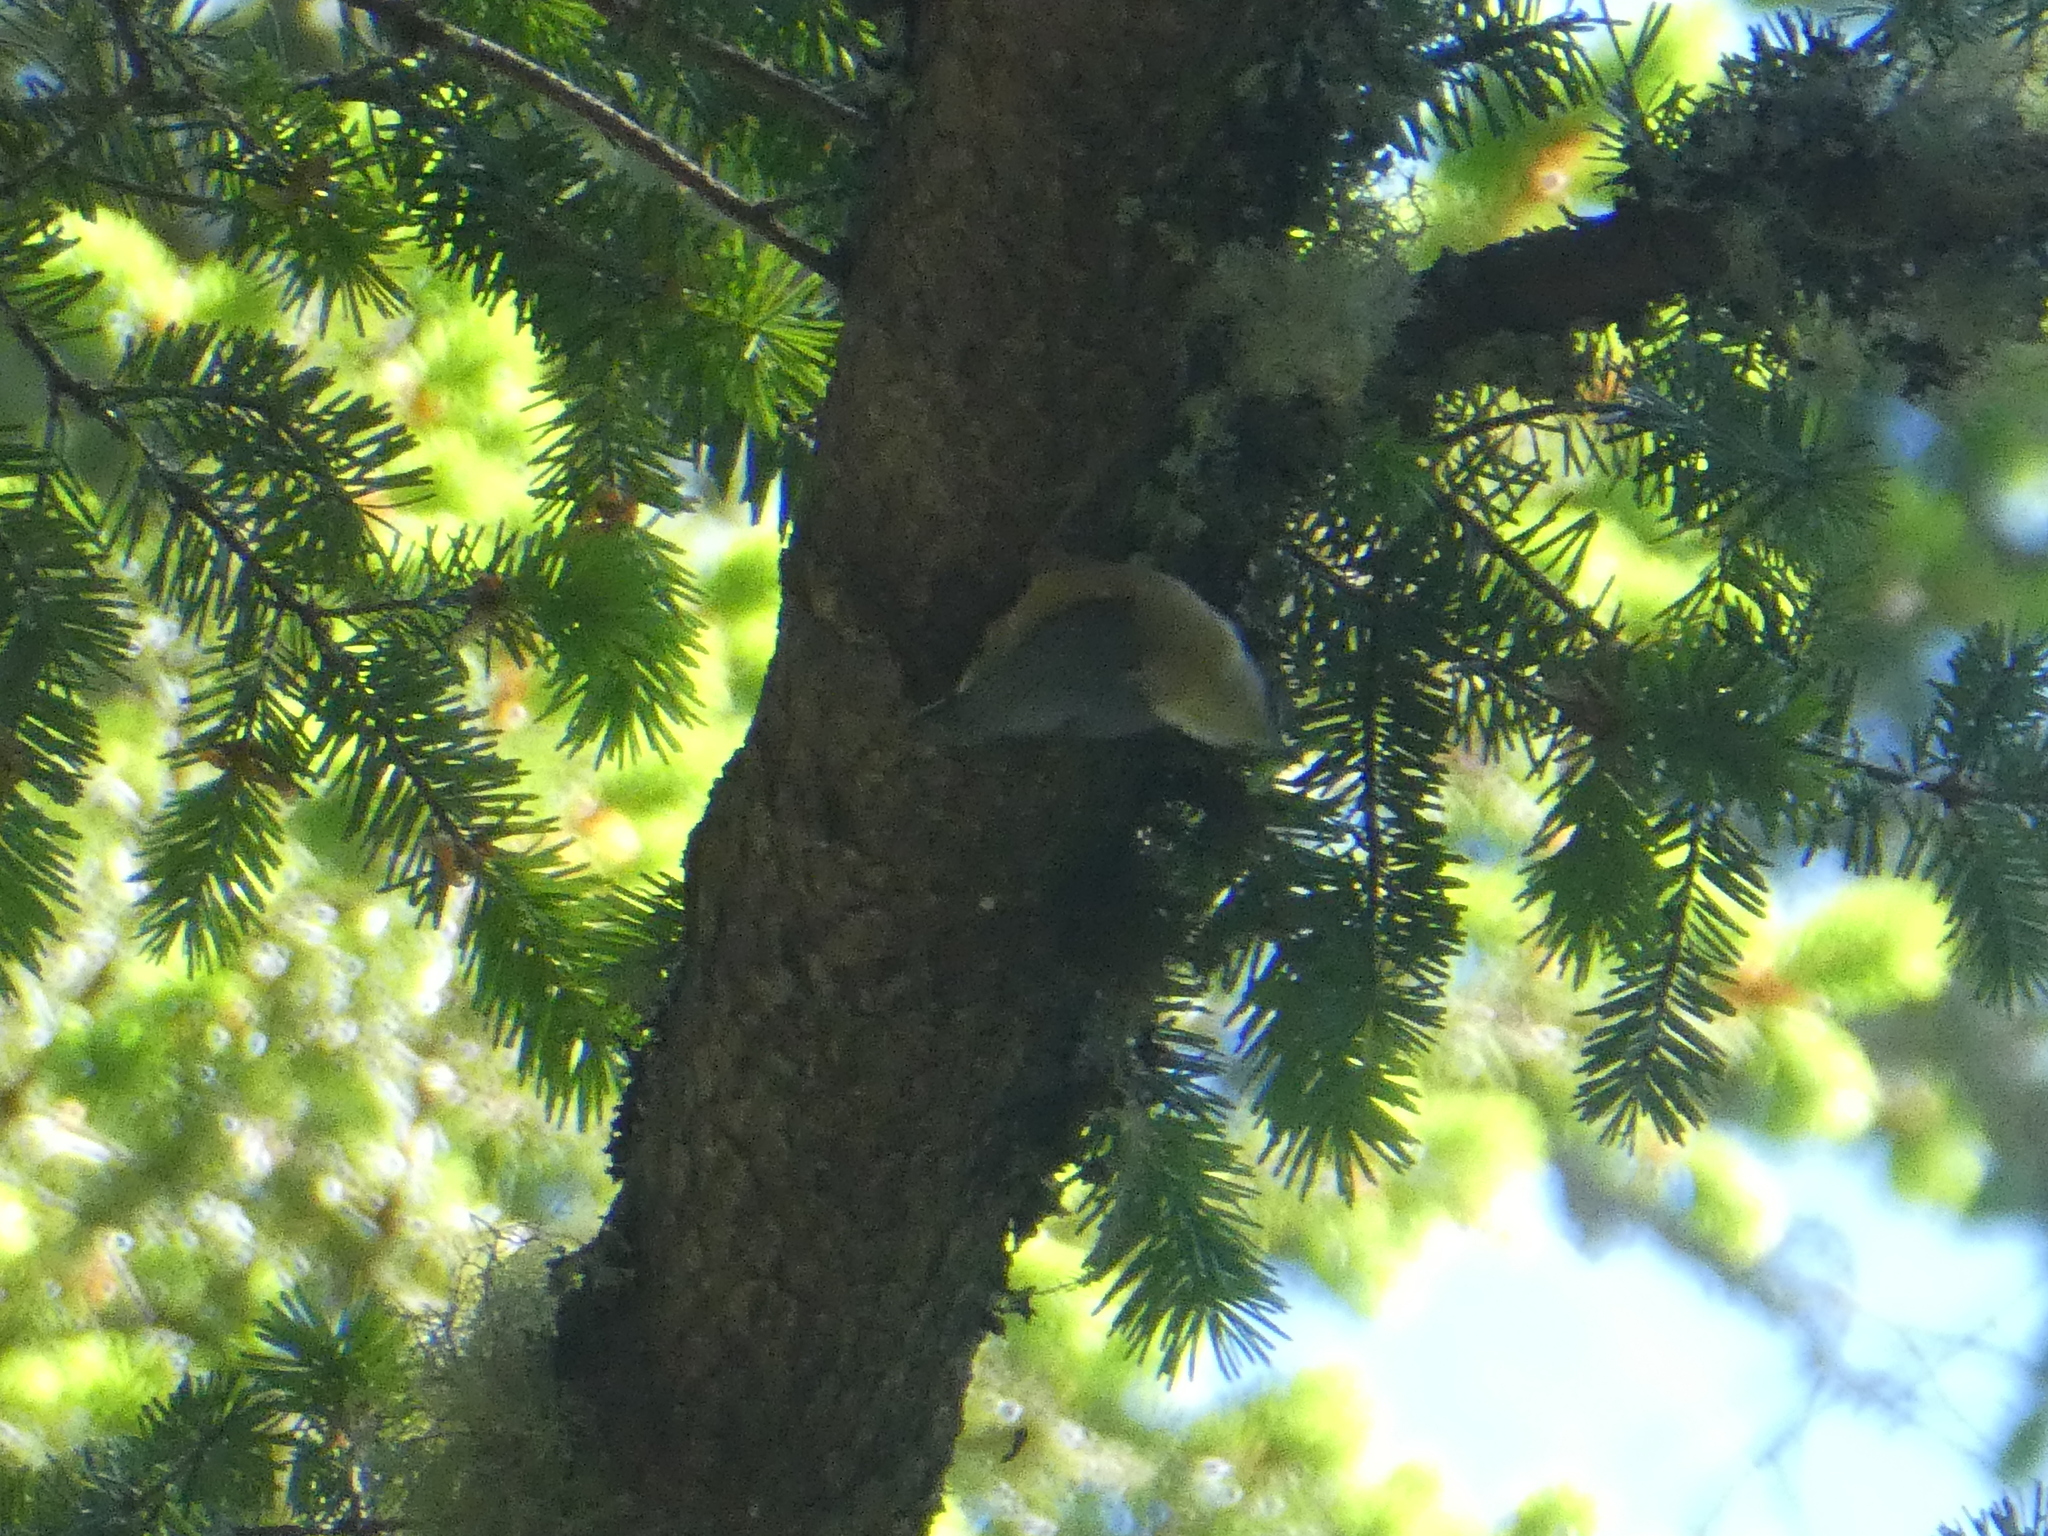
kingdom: Animalia
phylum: Chordata
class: Aves
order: Passeriformes
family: Sittidae
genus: Sitta
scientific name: Sitta canadensis
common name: Red-breasted nuthatch
